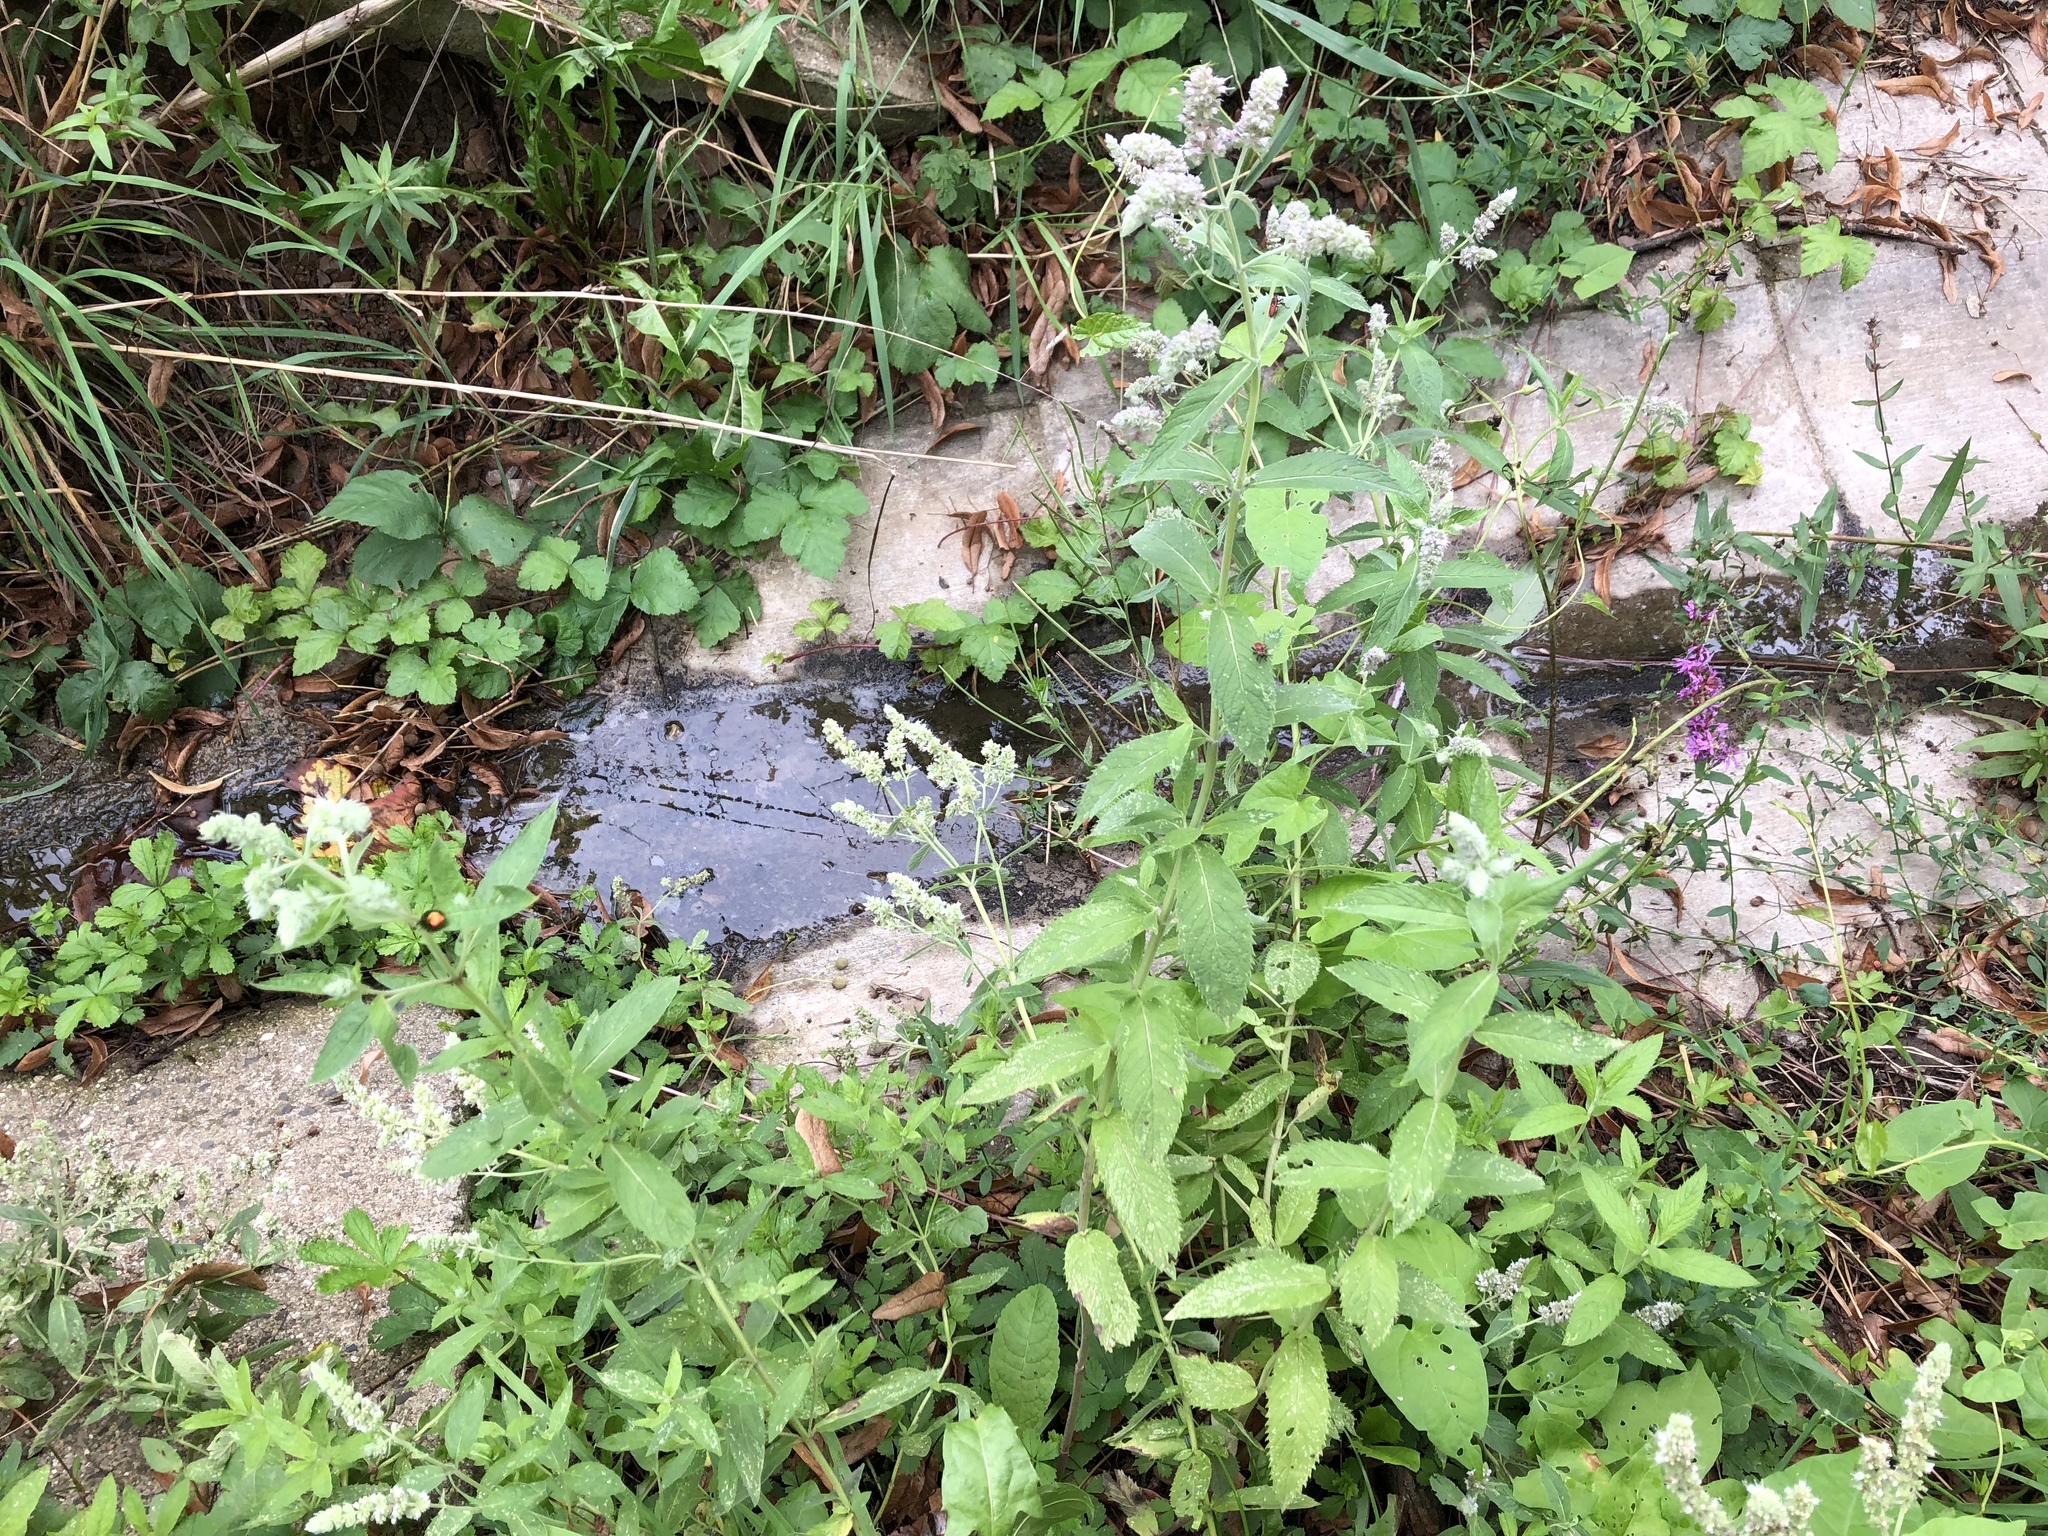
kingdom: Plantae
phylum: Tracheophyta
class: Magnoliopsida
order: Lamiales
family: Lamiaceae
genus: Mentha
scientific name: Mentha longifolia
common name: Horse mint
